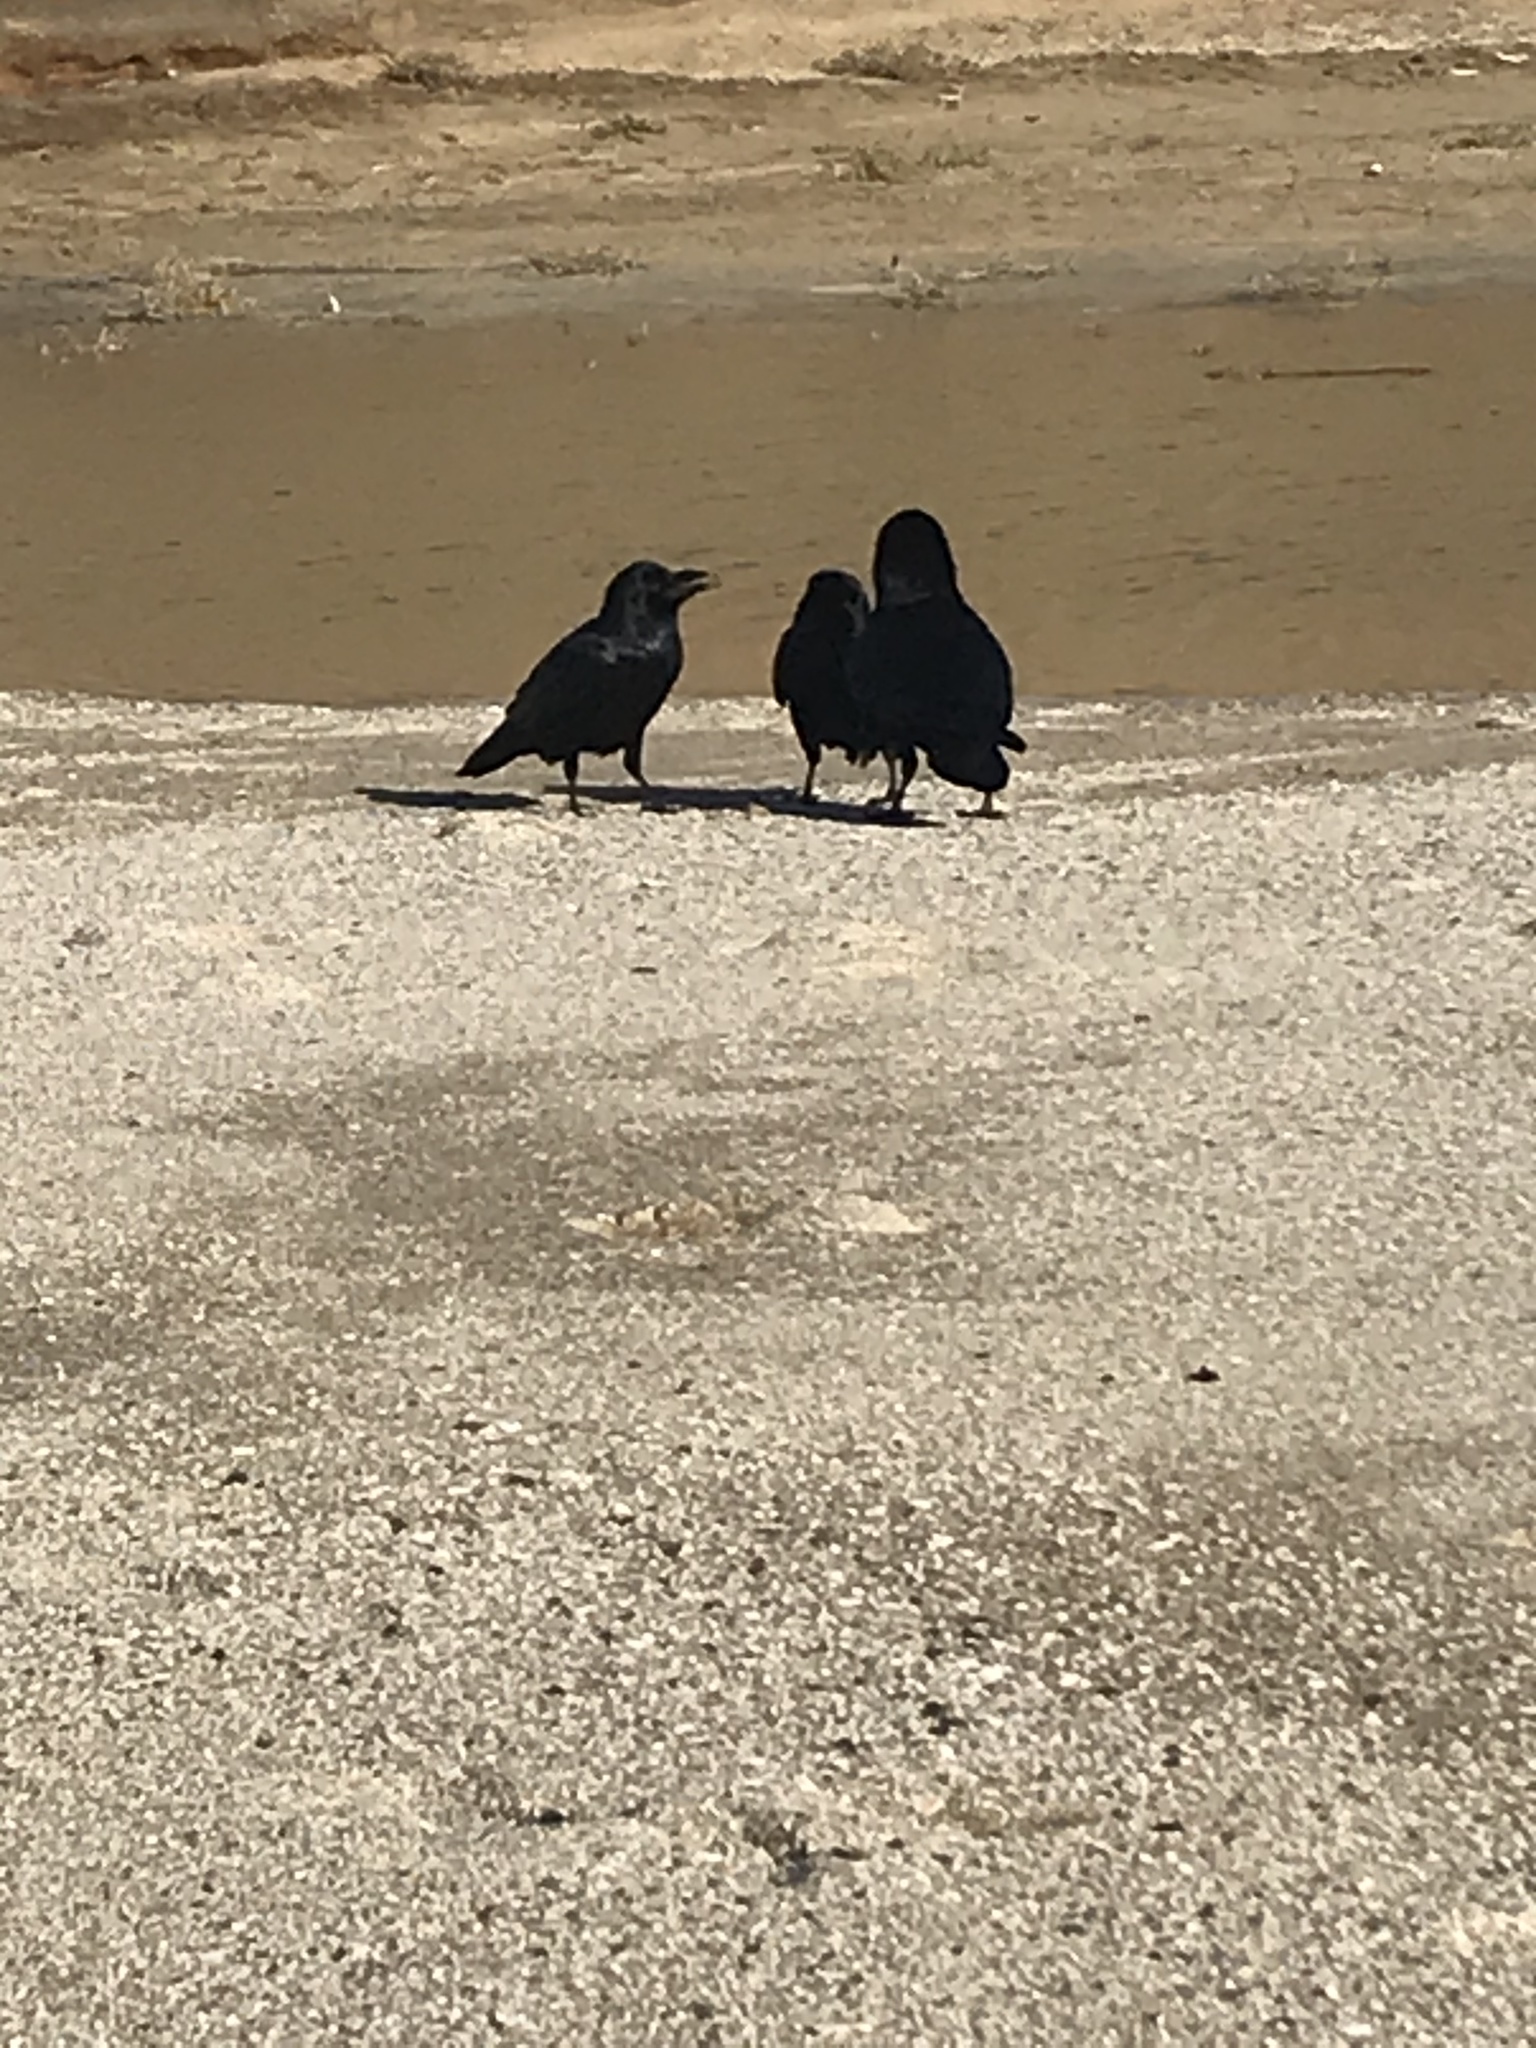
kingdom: Animalia
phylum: Chordata
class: Aves
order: Passeriformes
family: Corvidae
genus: Corvus
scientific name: Corvus corax
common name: Common raven
